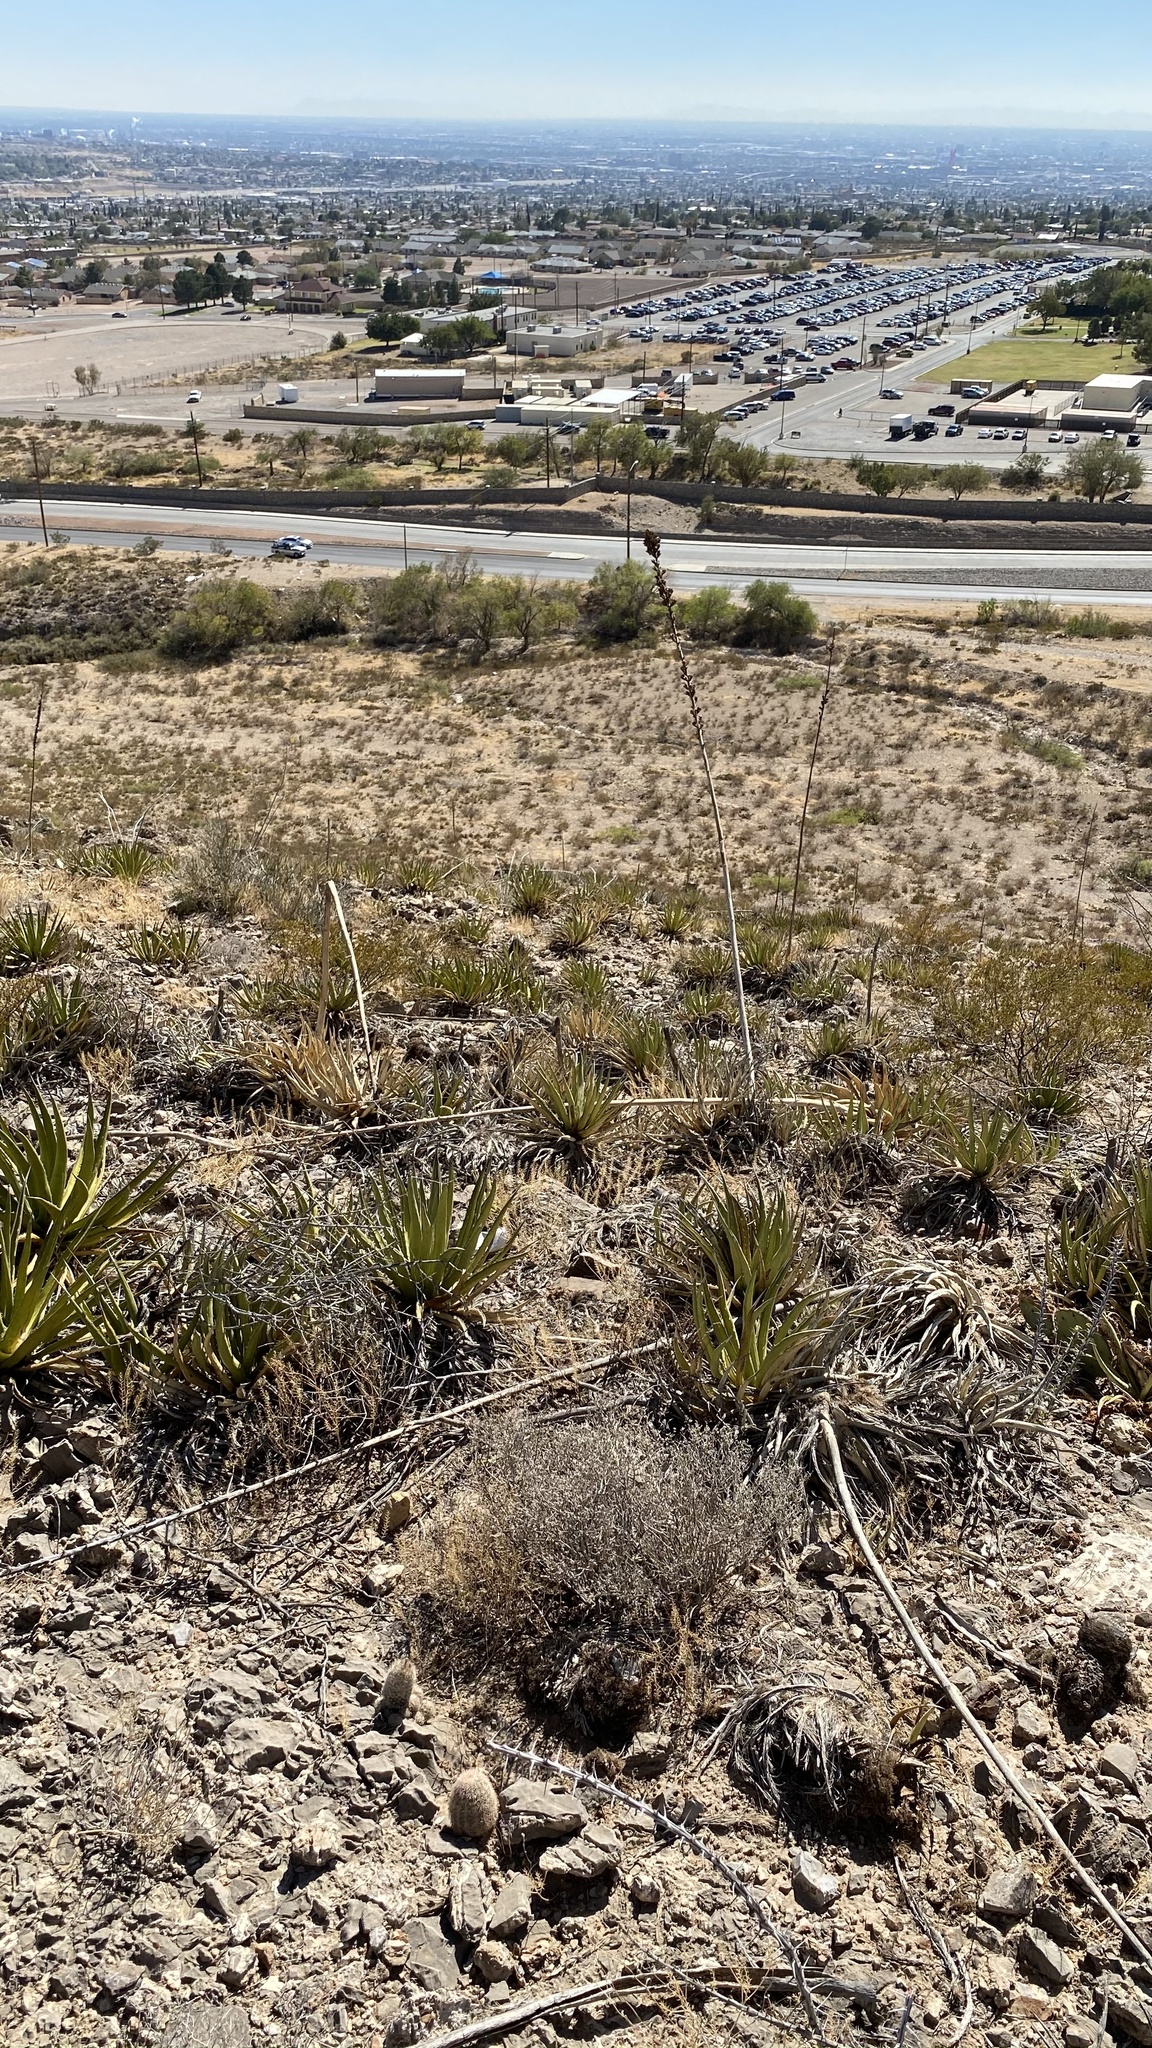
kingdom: Plantae
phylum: Tracheophyta
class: Liliopsida
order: Asparagales
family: Asparagaceae
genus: Agave
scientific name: Agave lechuguilla
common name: Lecheguilla agave
